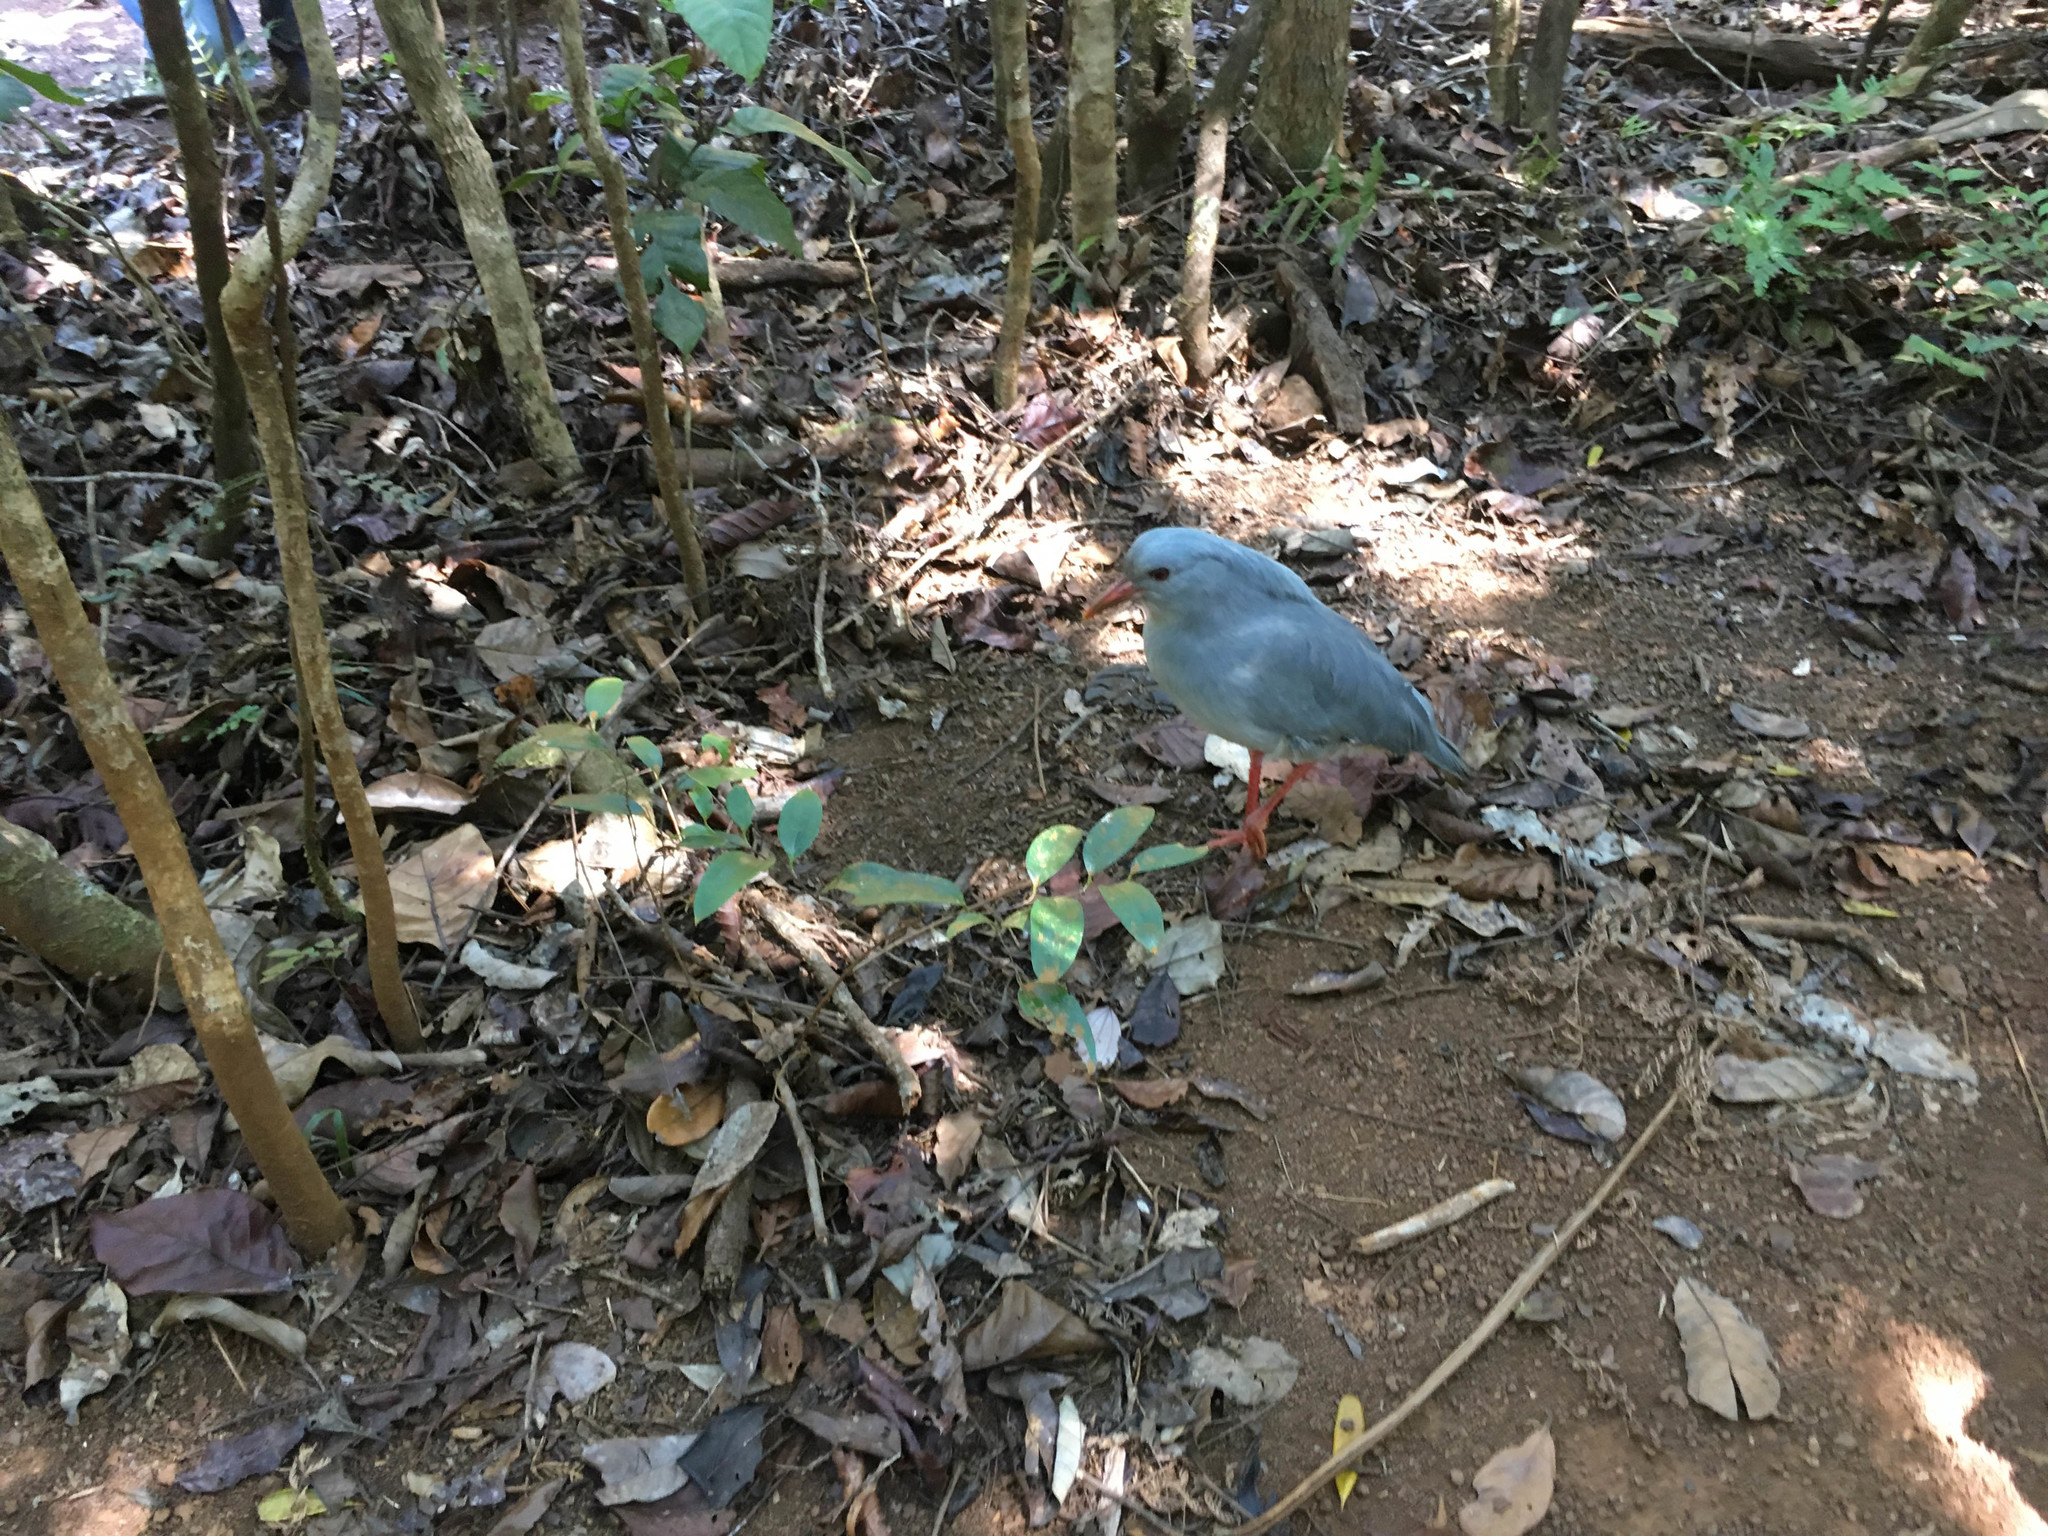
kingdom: Animalia
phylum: Chordata
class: Aves
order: Eurypygiformes
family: Rhynochetidae
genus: Rhynochetos
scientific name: Rhynochetos jubatus
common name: Kagu
